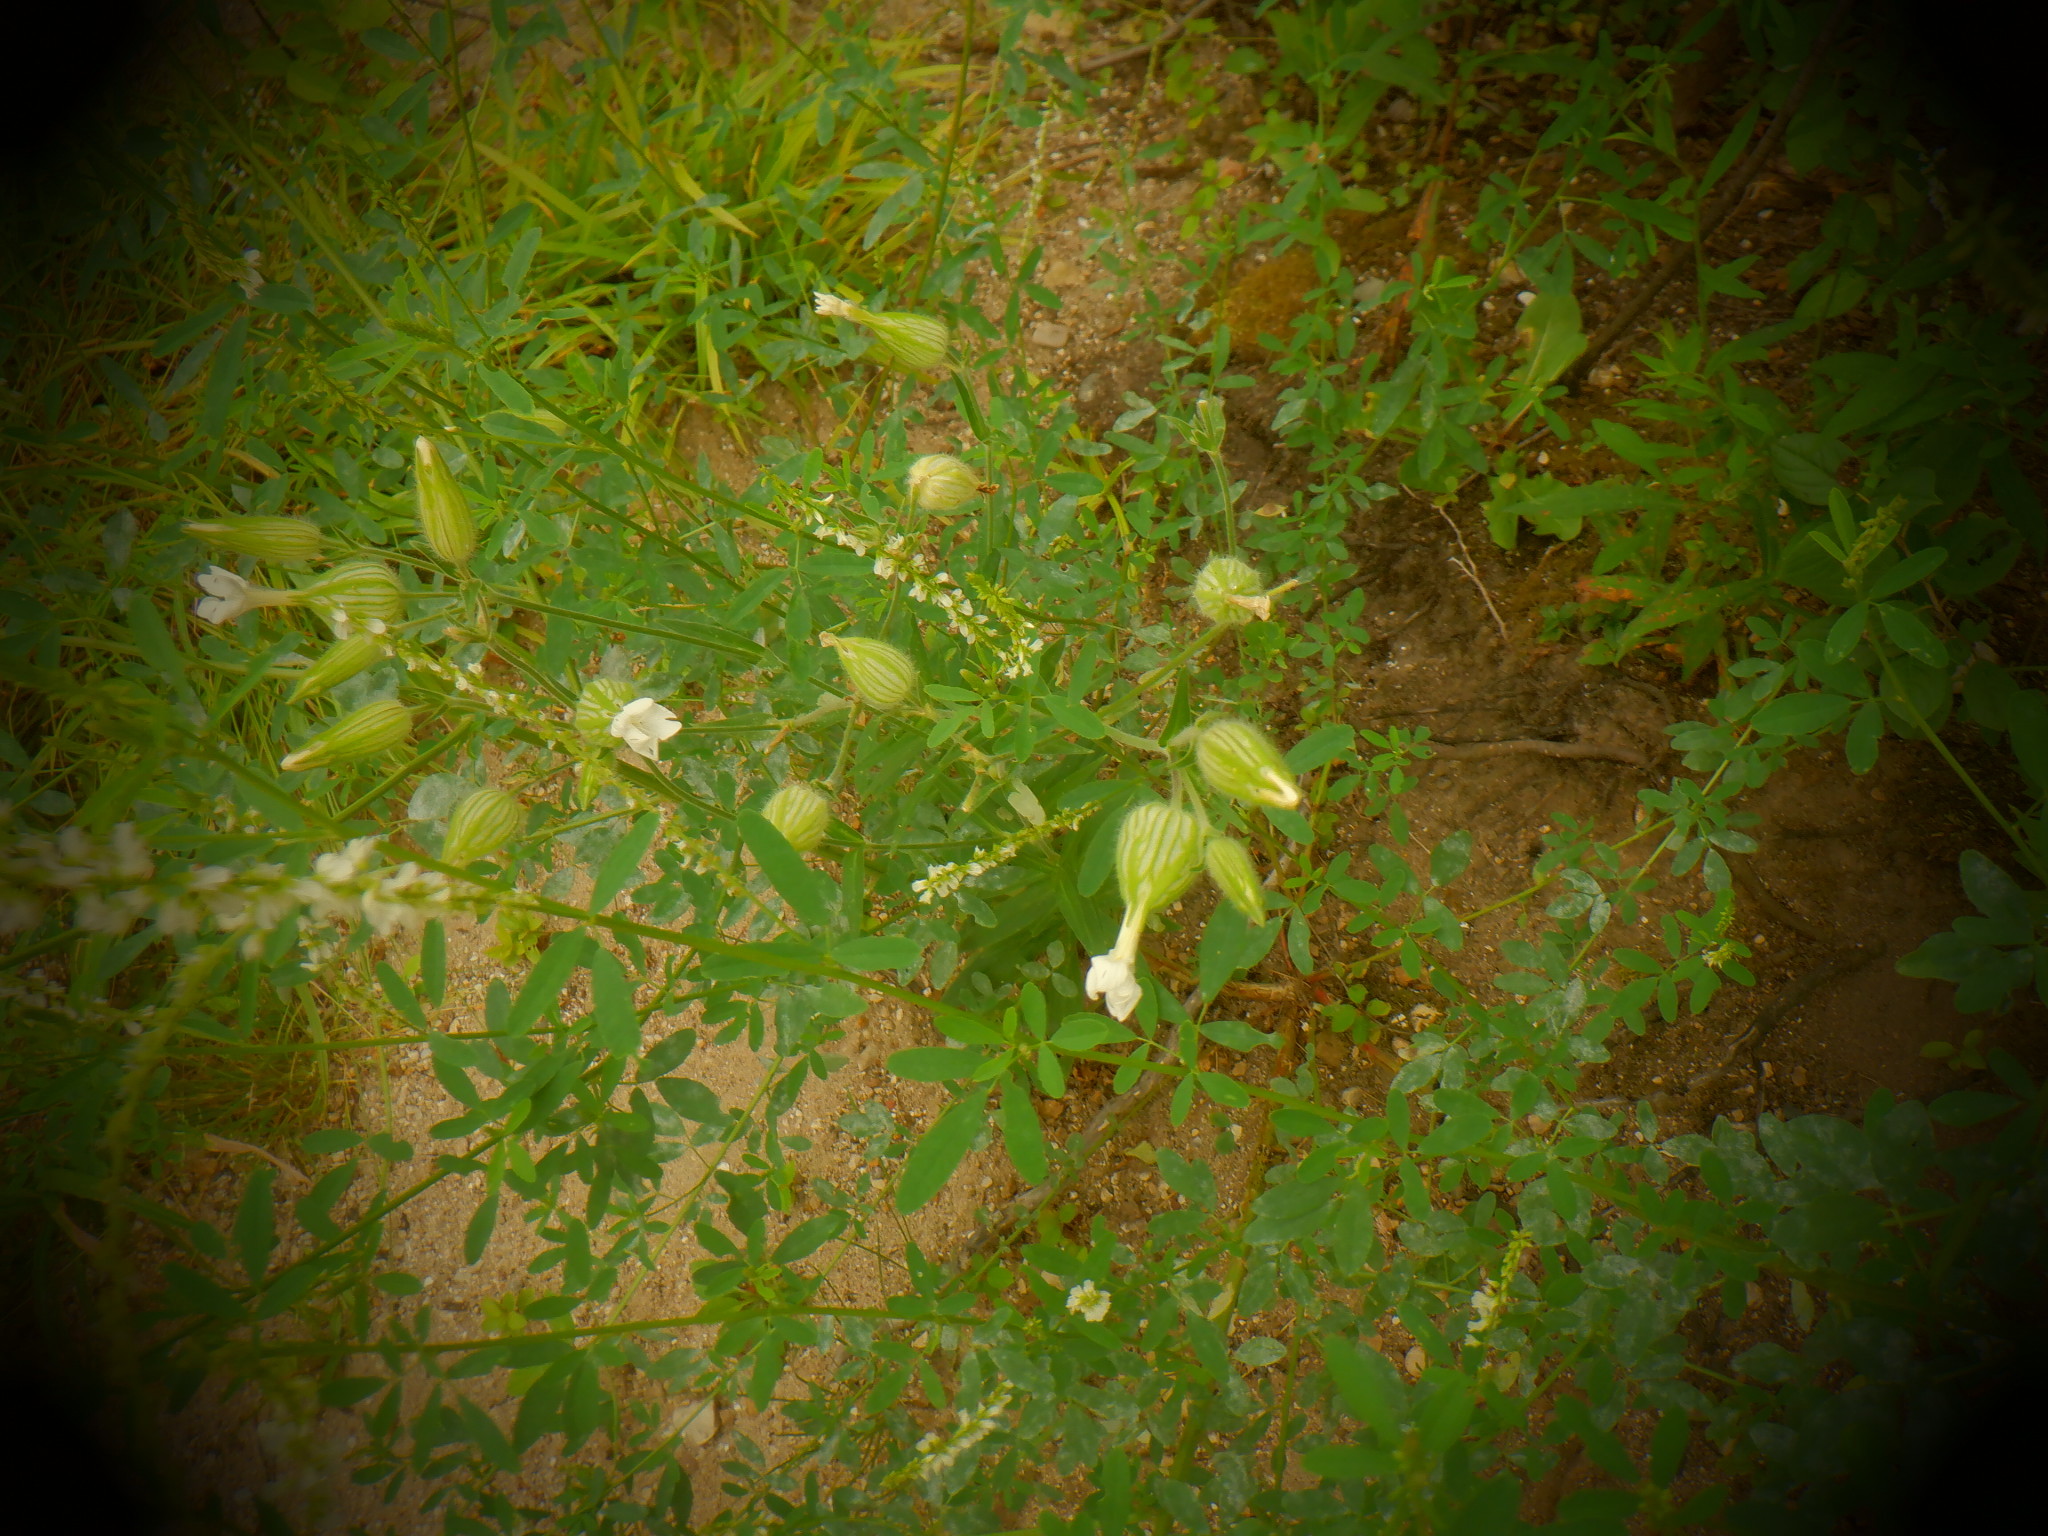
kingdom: Plantae
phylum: Tracheophyta
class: Magnoliopsida
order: Caryophyllales
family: Caryophyllaceae
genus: Silene
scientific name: Silene latifolia
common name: White campion
